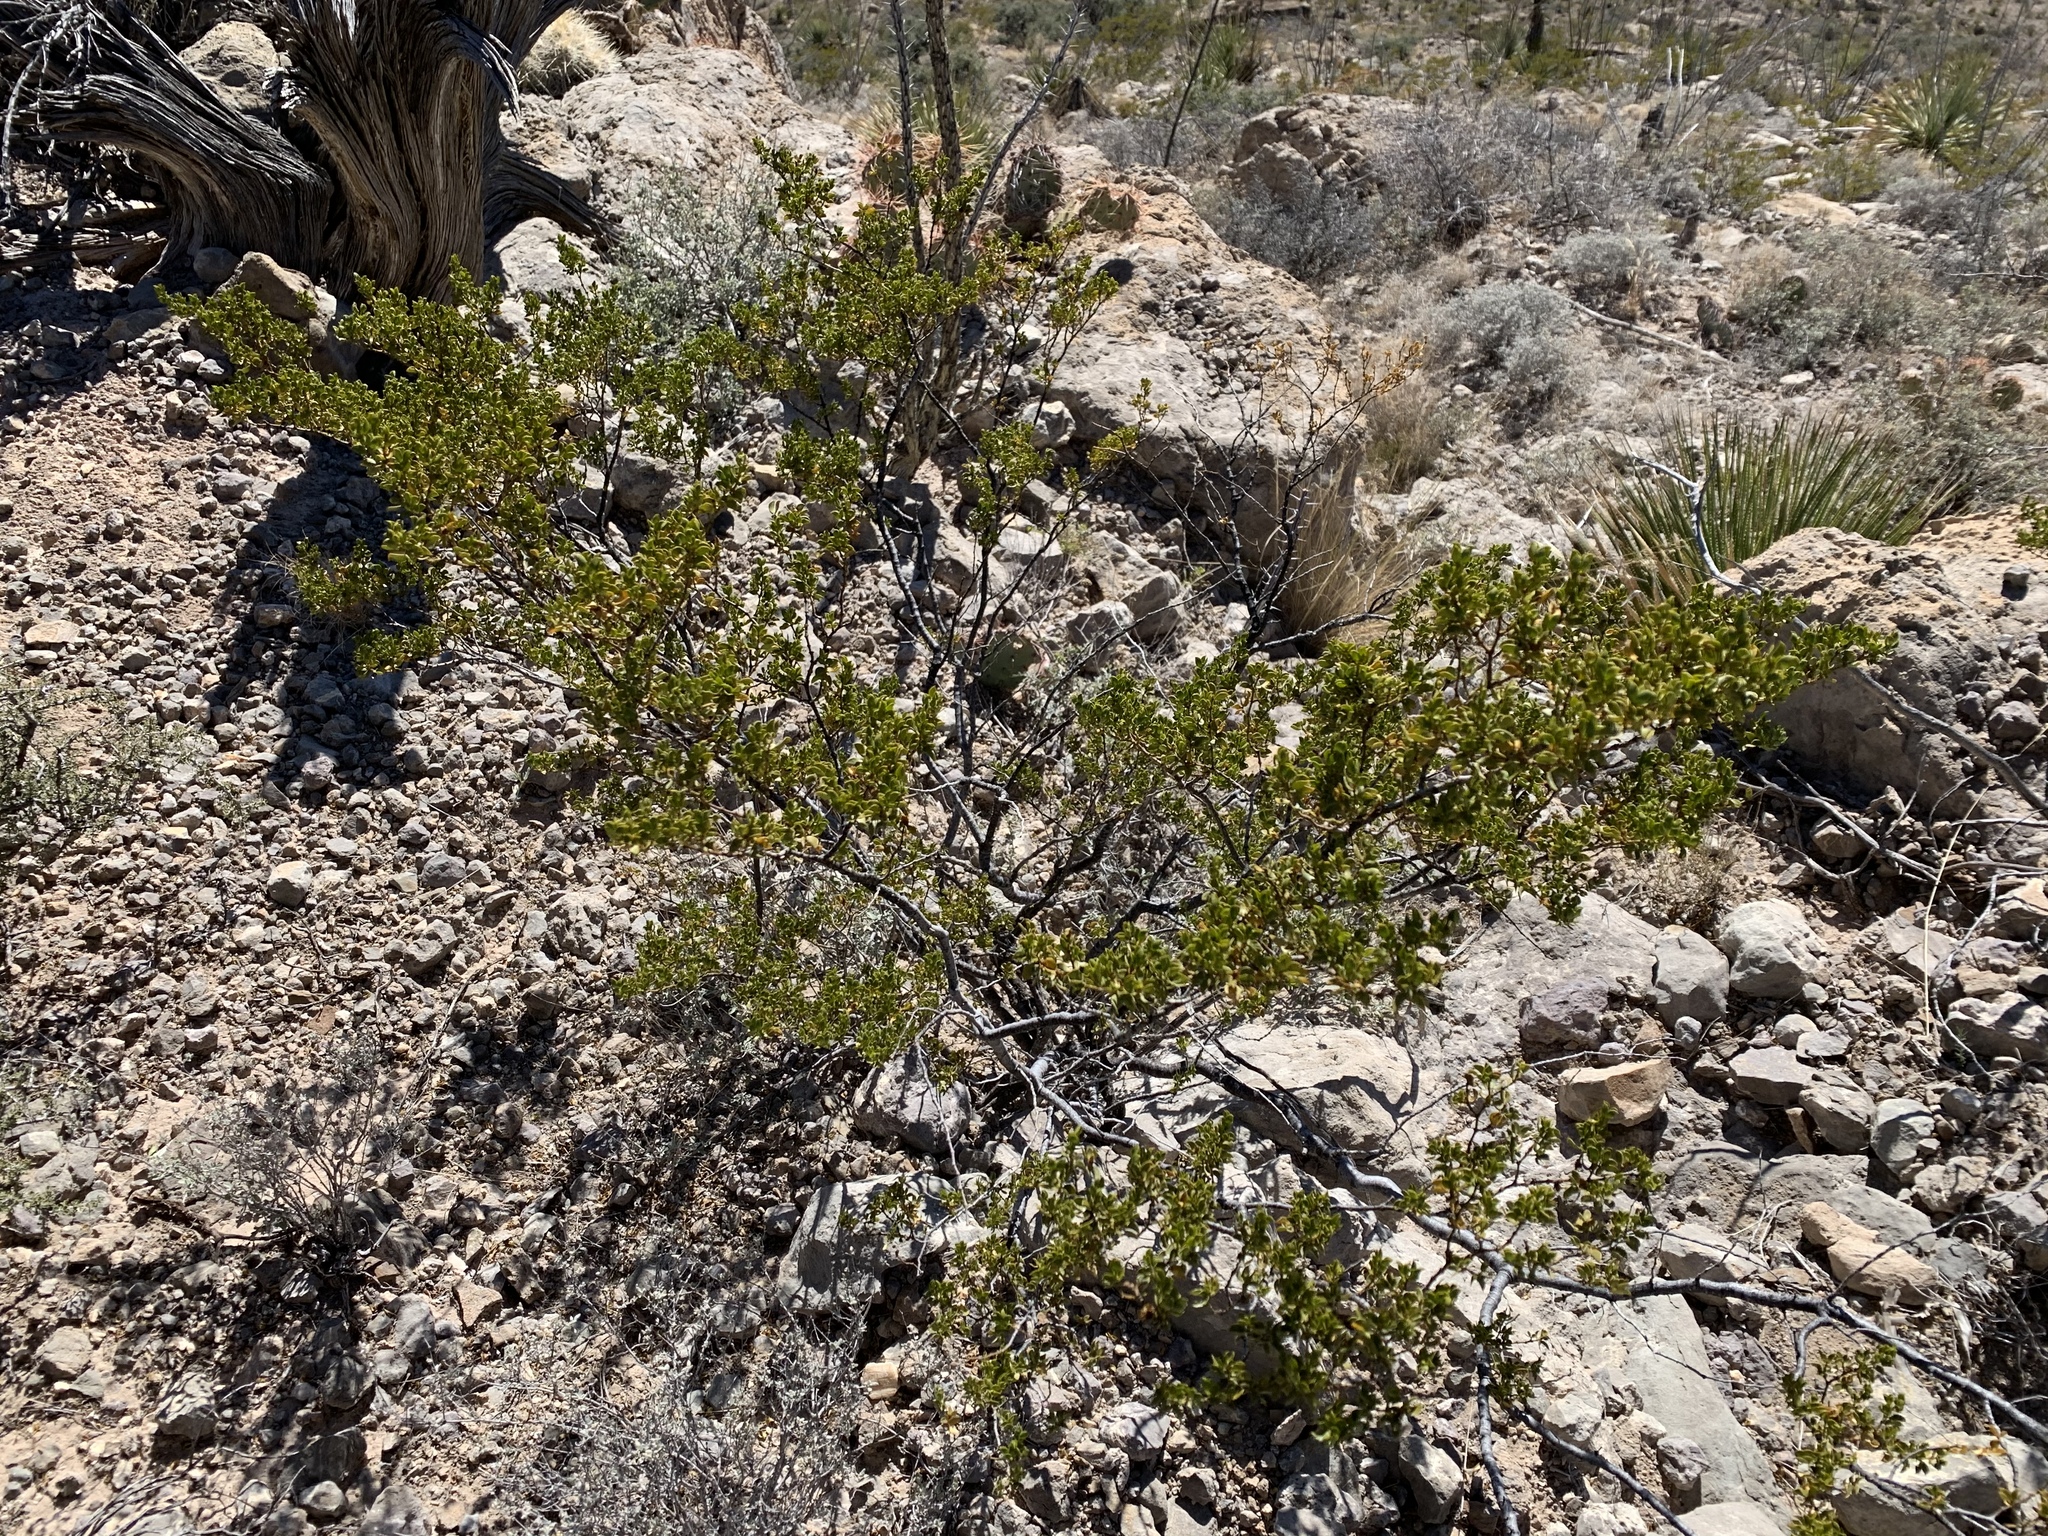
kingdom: Plantae
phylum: Tracheophyta
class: Magnoliopsida
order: Zygophyllales
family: Zygophyllaceae
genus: Larrea
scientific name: Larrea tridentata
